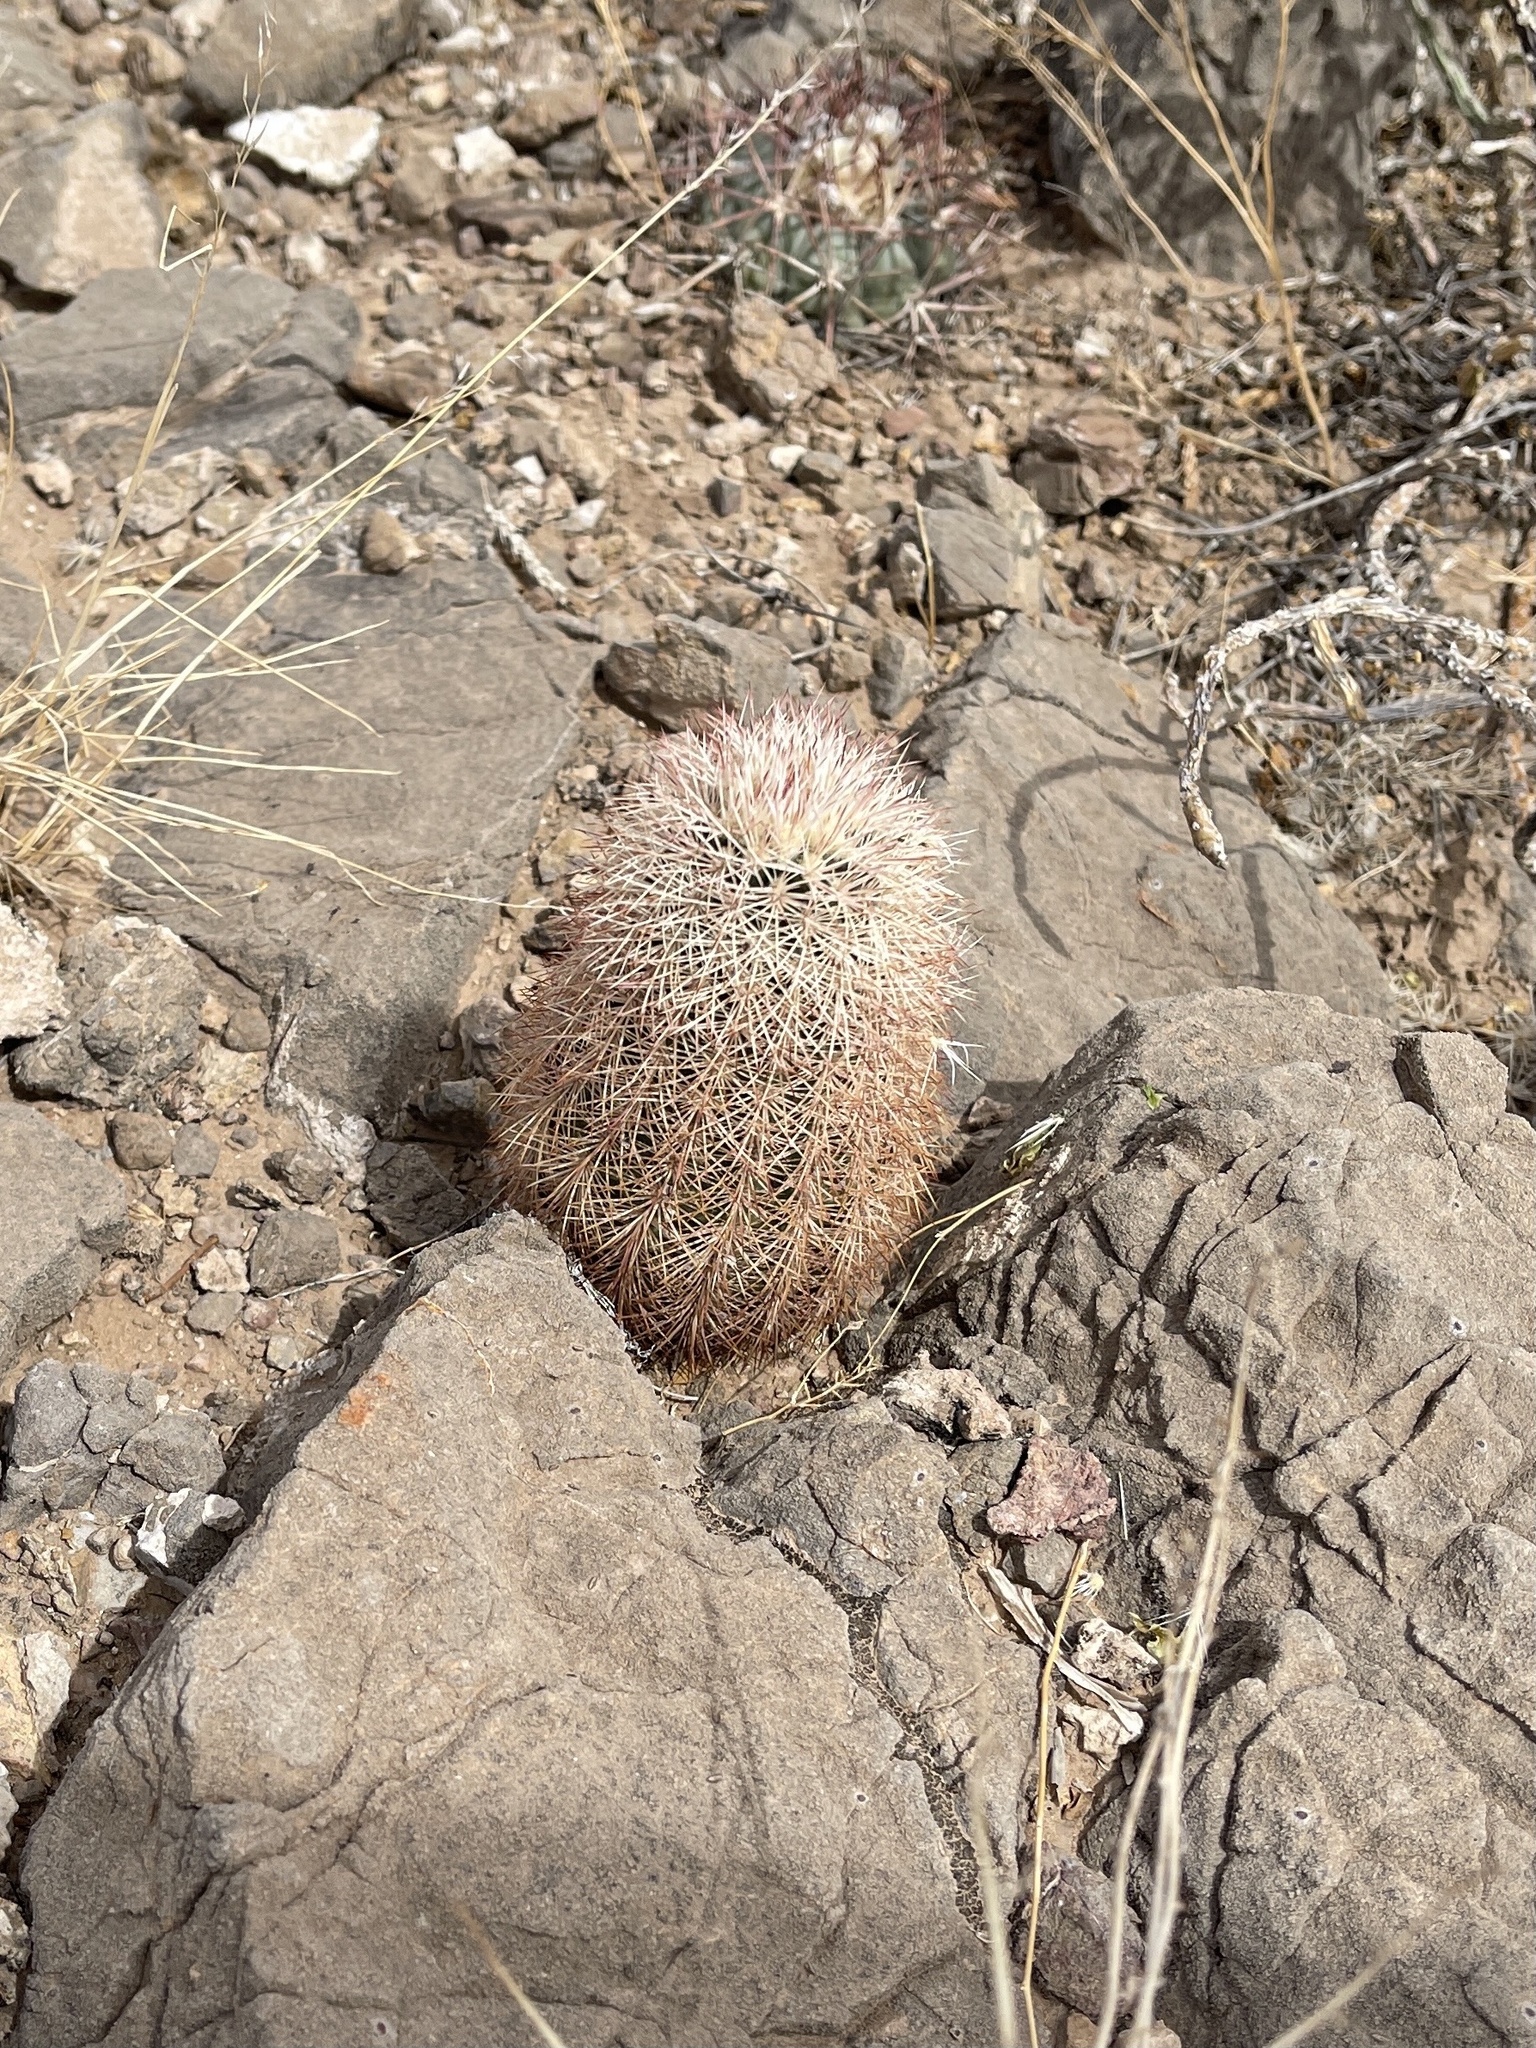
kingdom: Plantae
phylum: Tracheophyta
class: Magnoliopsida
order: Caryophyllales
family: Cactaceae
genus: Echinocereus
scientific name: Echinocereus dasyacanthus
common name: Spiny hedgehog cactus
